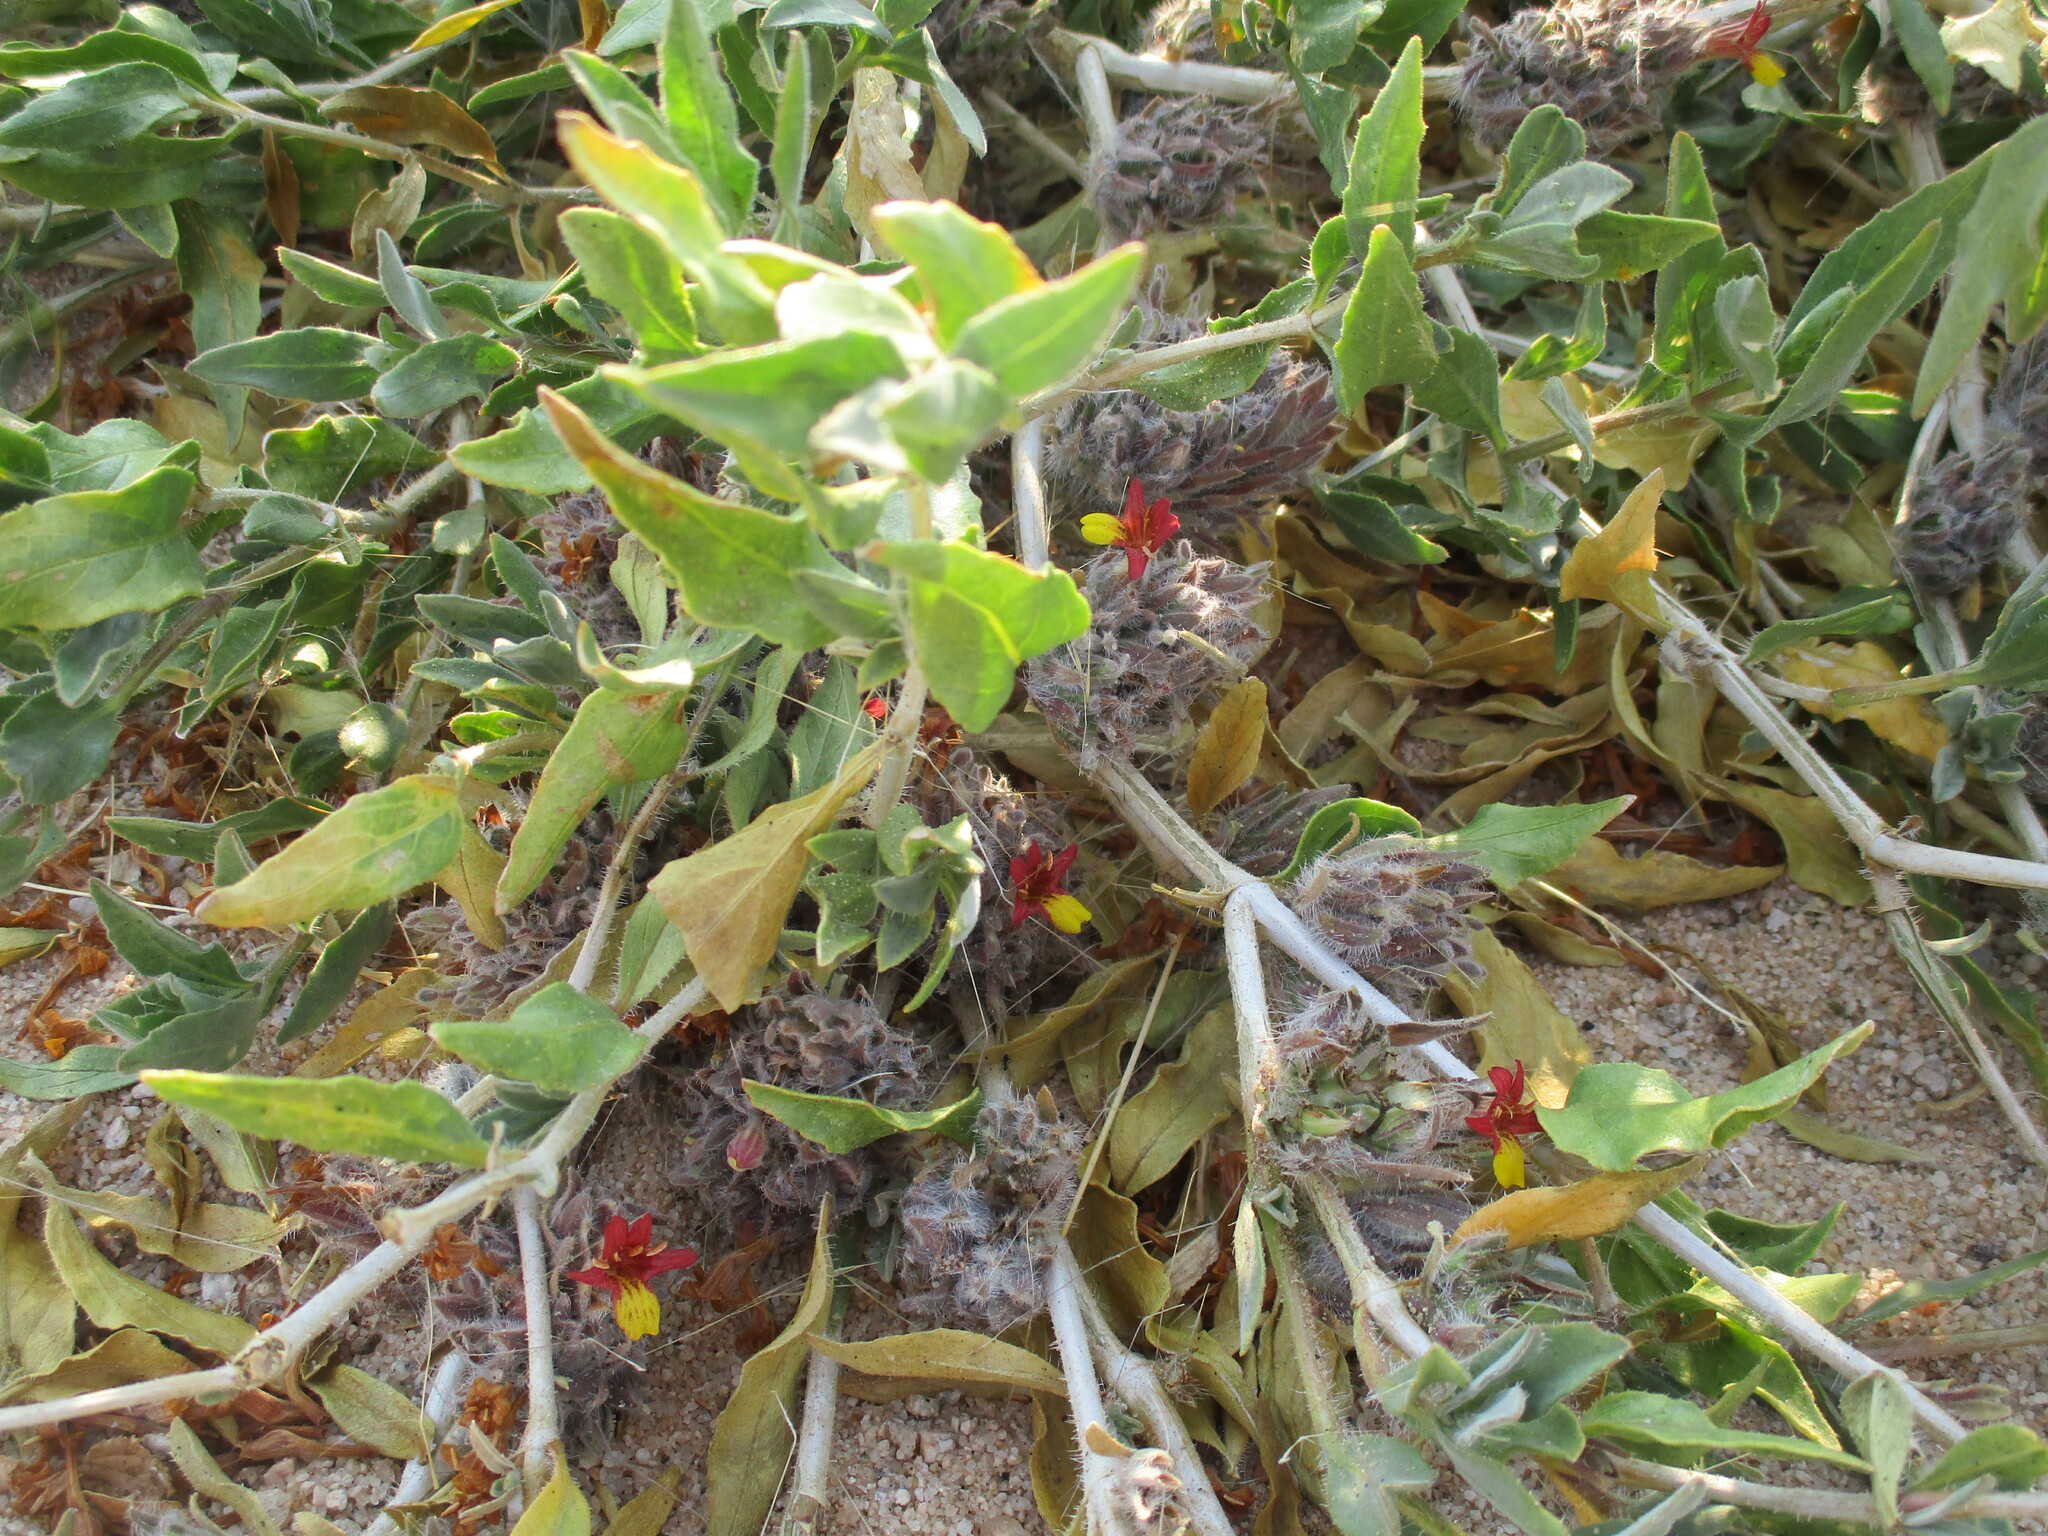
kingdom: Plantae
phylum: Tracheophyta
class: Magnoliopsida
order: Lamiales
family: Acanthaceae
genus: Petalidium
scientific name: Petalidium setosum
